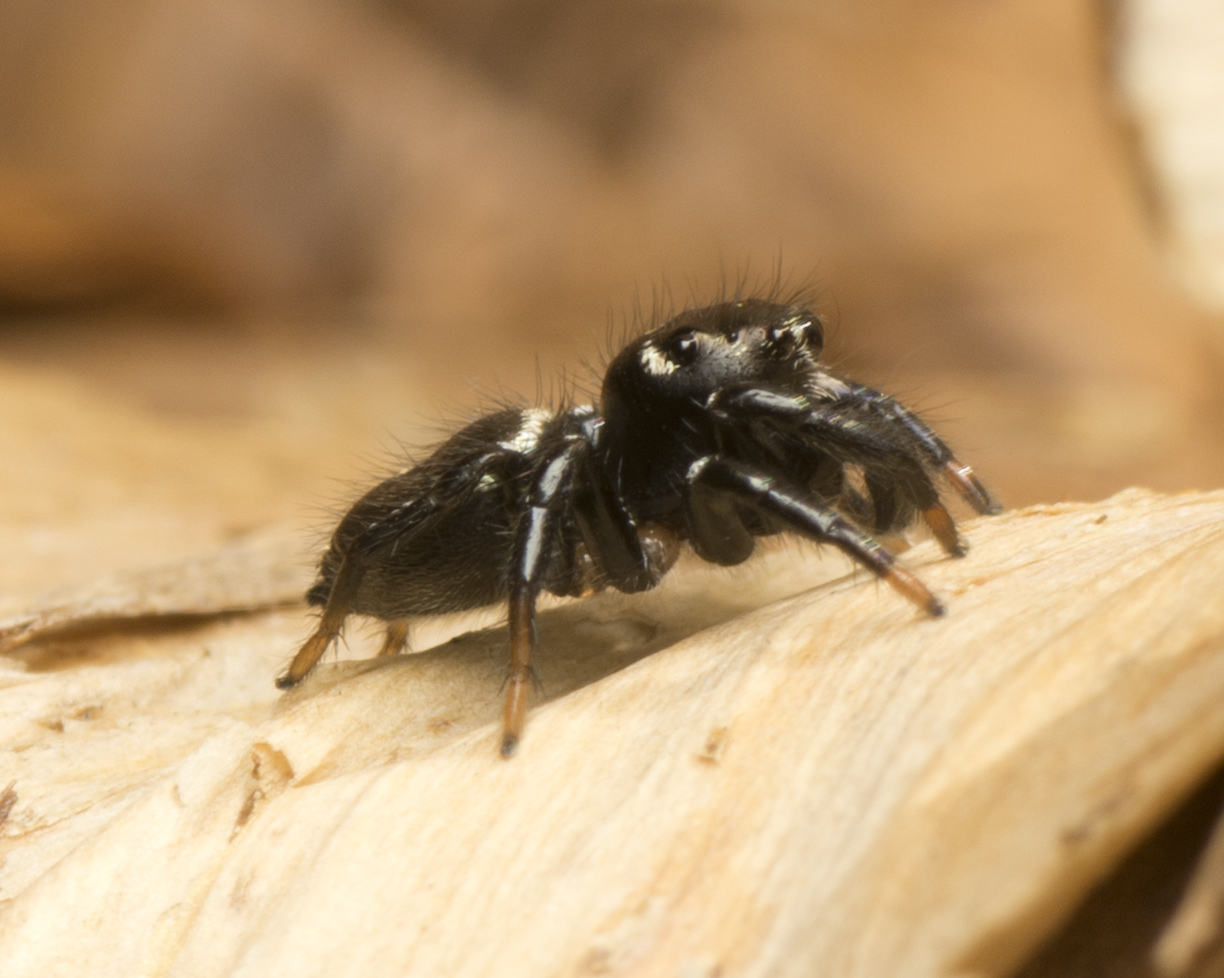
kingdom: Animalia
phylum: Arthropoda
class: Arachnida
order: Araneae
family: Salticidae
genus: Zenodorus
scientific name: Zenodorus orbiculatus
